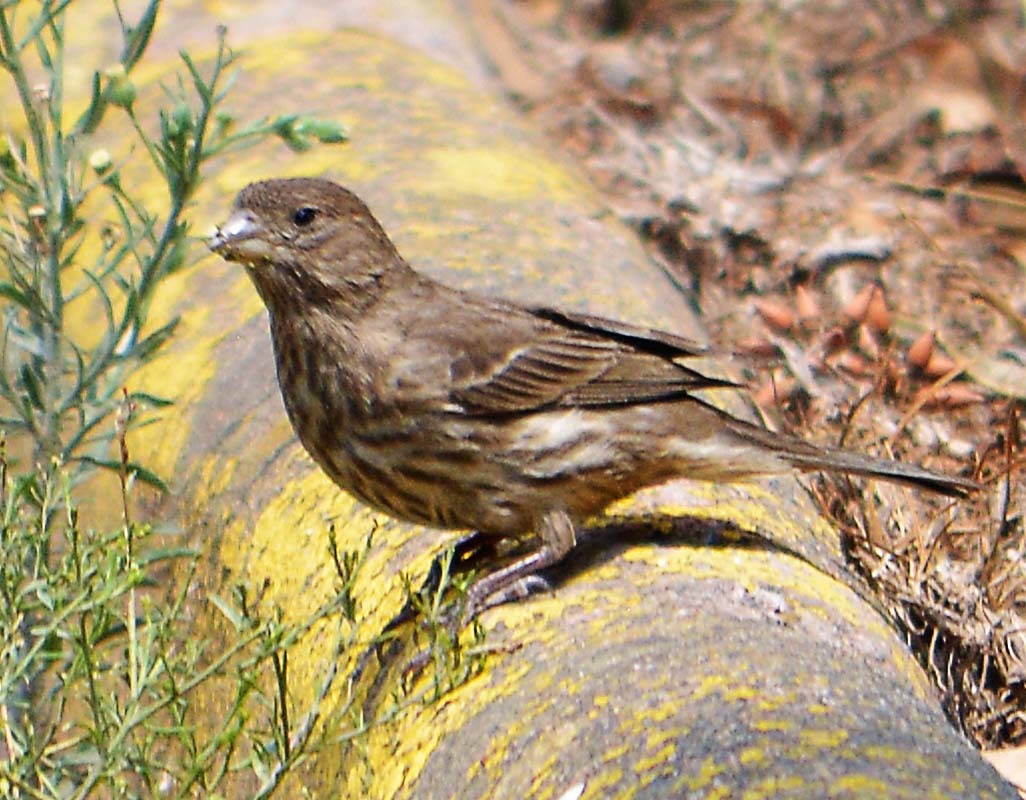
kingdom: Animalia
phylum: Chordata
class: Aves
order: Passeriformes
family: Fringillidae
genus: Haemorhous
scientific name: Haemorhous mexicanus
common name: House finch
